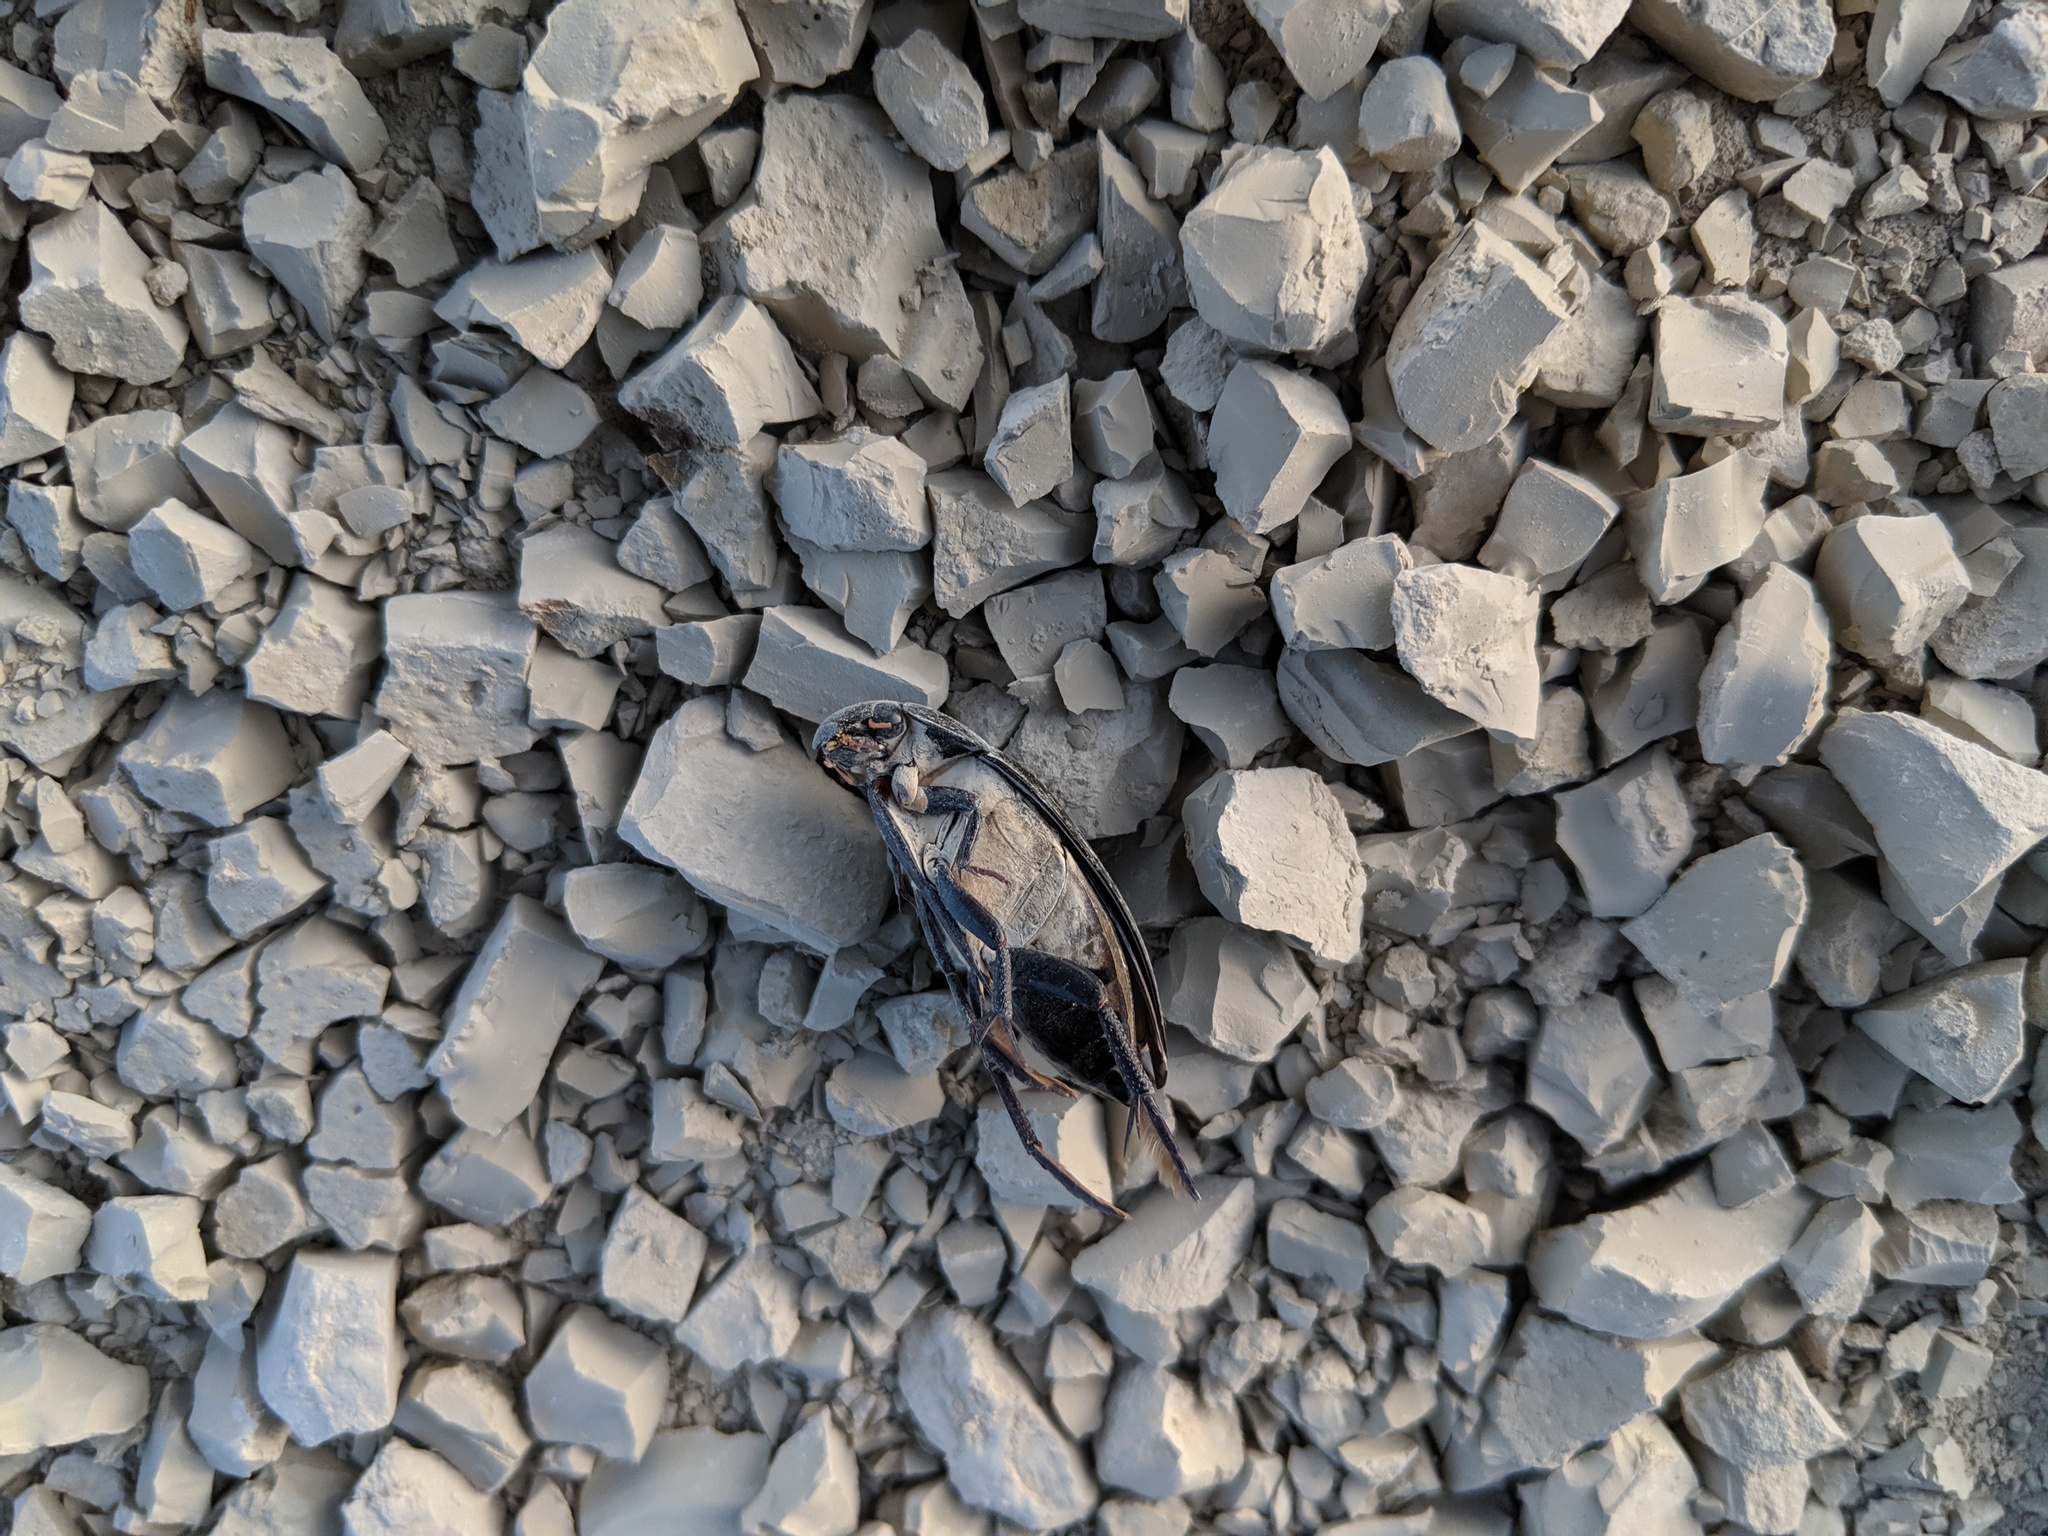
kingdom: Animalia
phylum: Arthropoda
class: Insecta
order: Coleoptera
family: Hydrophilidae
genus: Hydrophilus
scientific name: Hydrophilus triangularis
